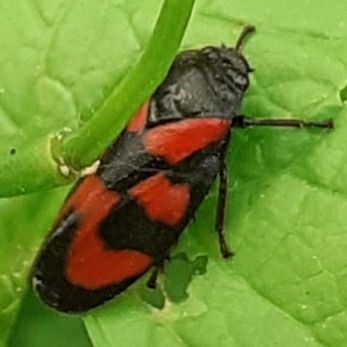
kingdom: Animalia
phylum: Arthropoda
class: Insecta
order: Hemiptera
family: Cercopidae
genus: Cercopis
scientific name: Cercopis vulnerata
